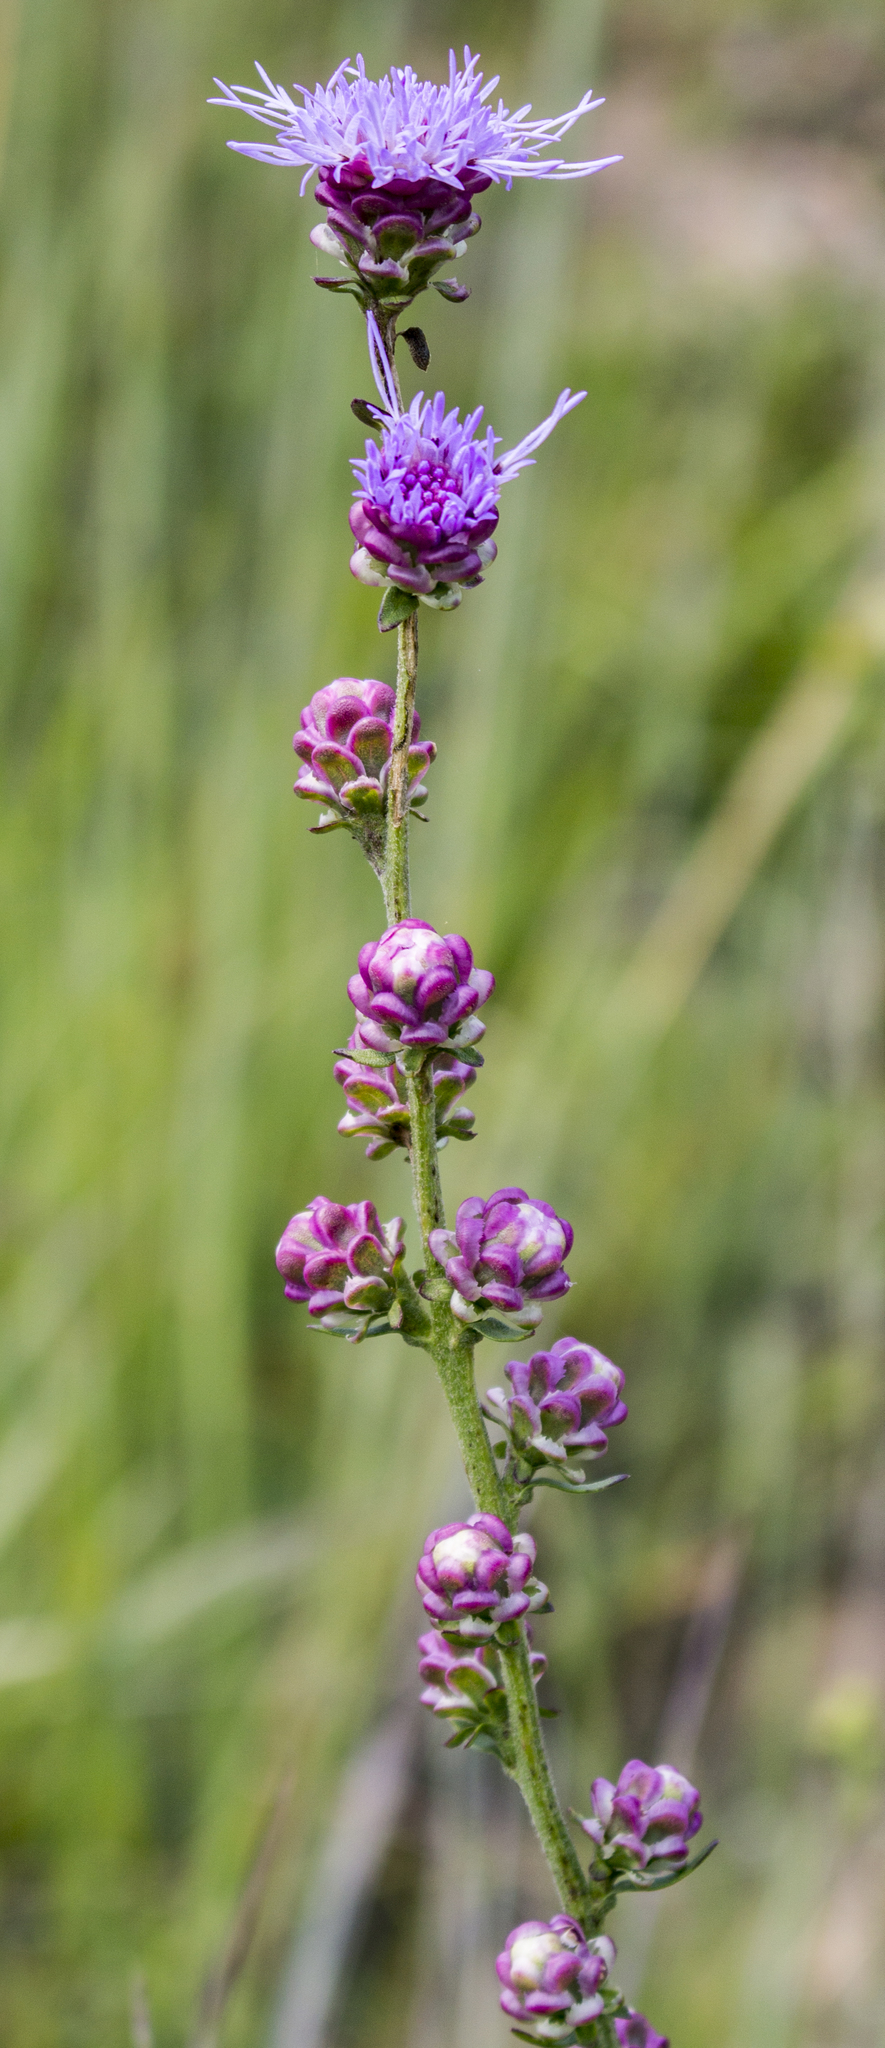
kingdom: Plantae
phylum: Tracheophyta
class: Magnoliopsida
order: Asterales
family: Asteraceae
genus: Liatris
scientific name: Liatris aspera
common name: Lacerate blazing-star
